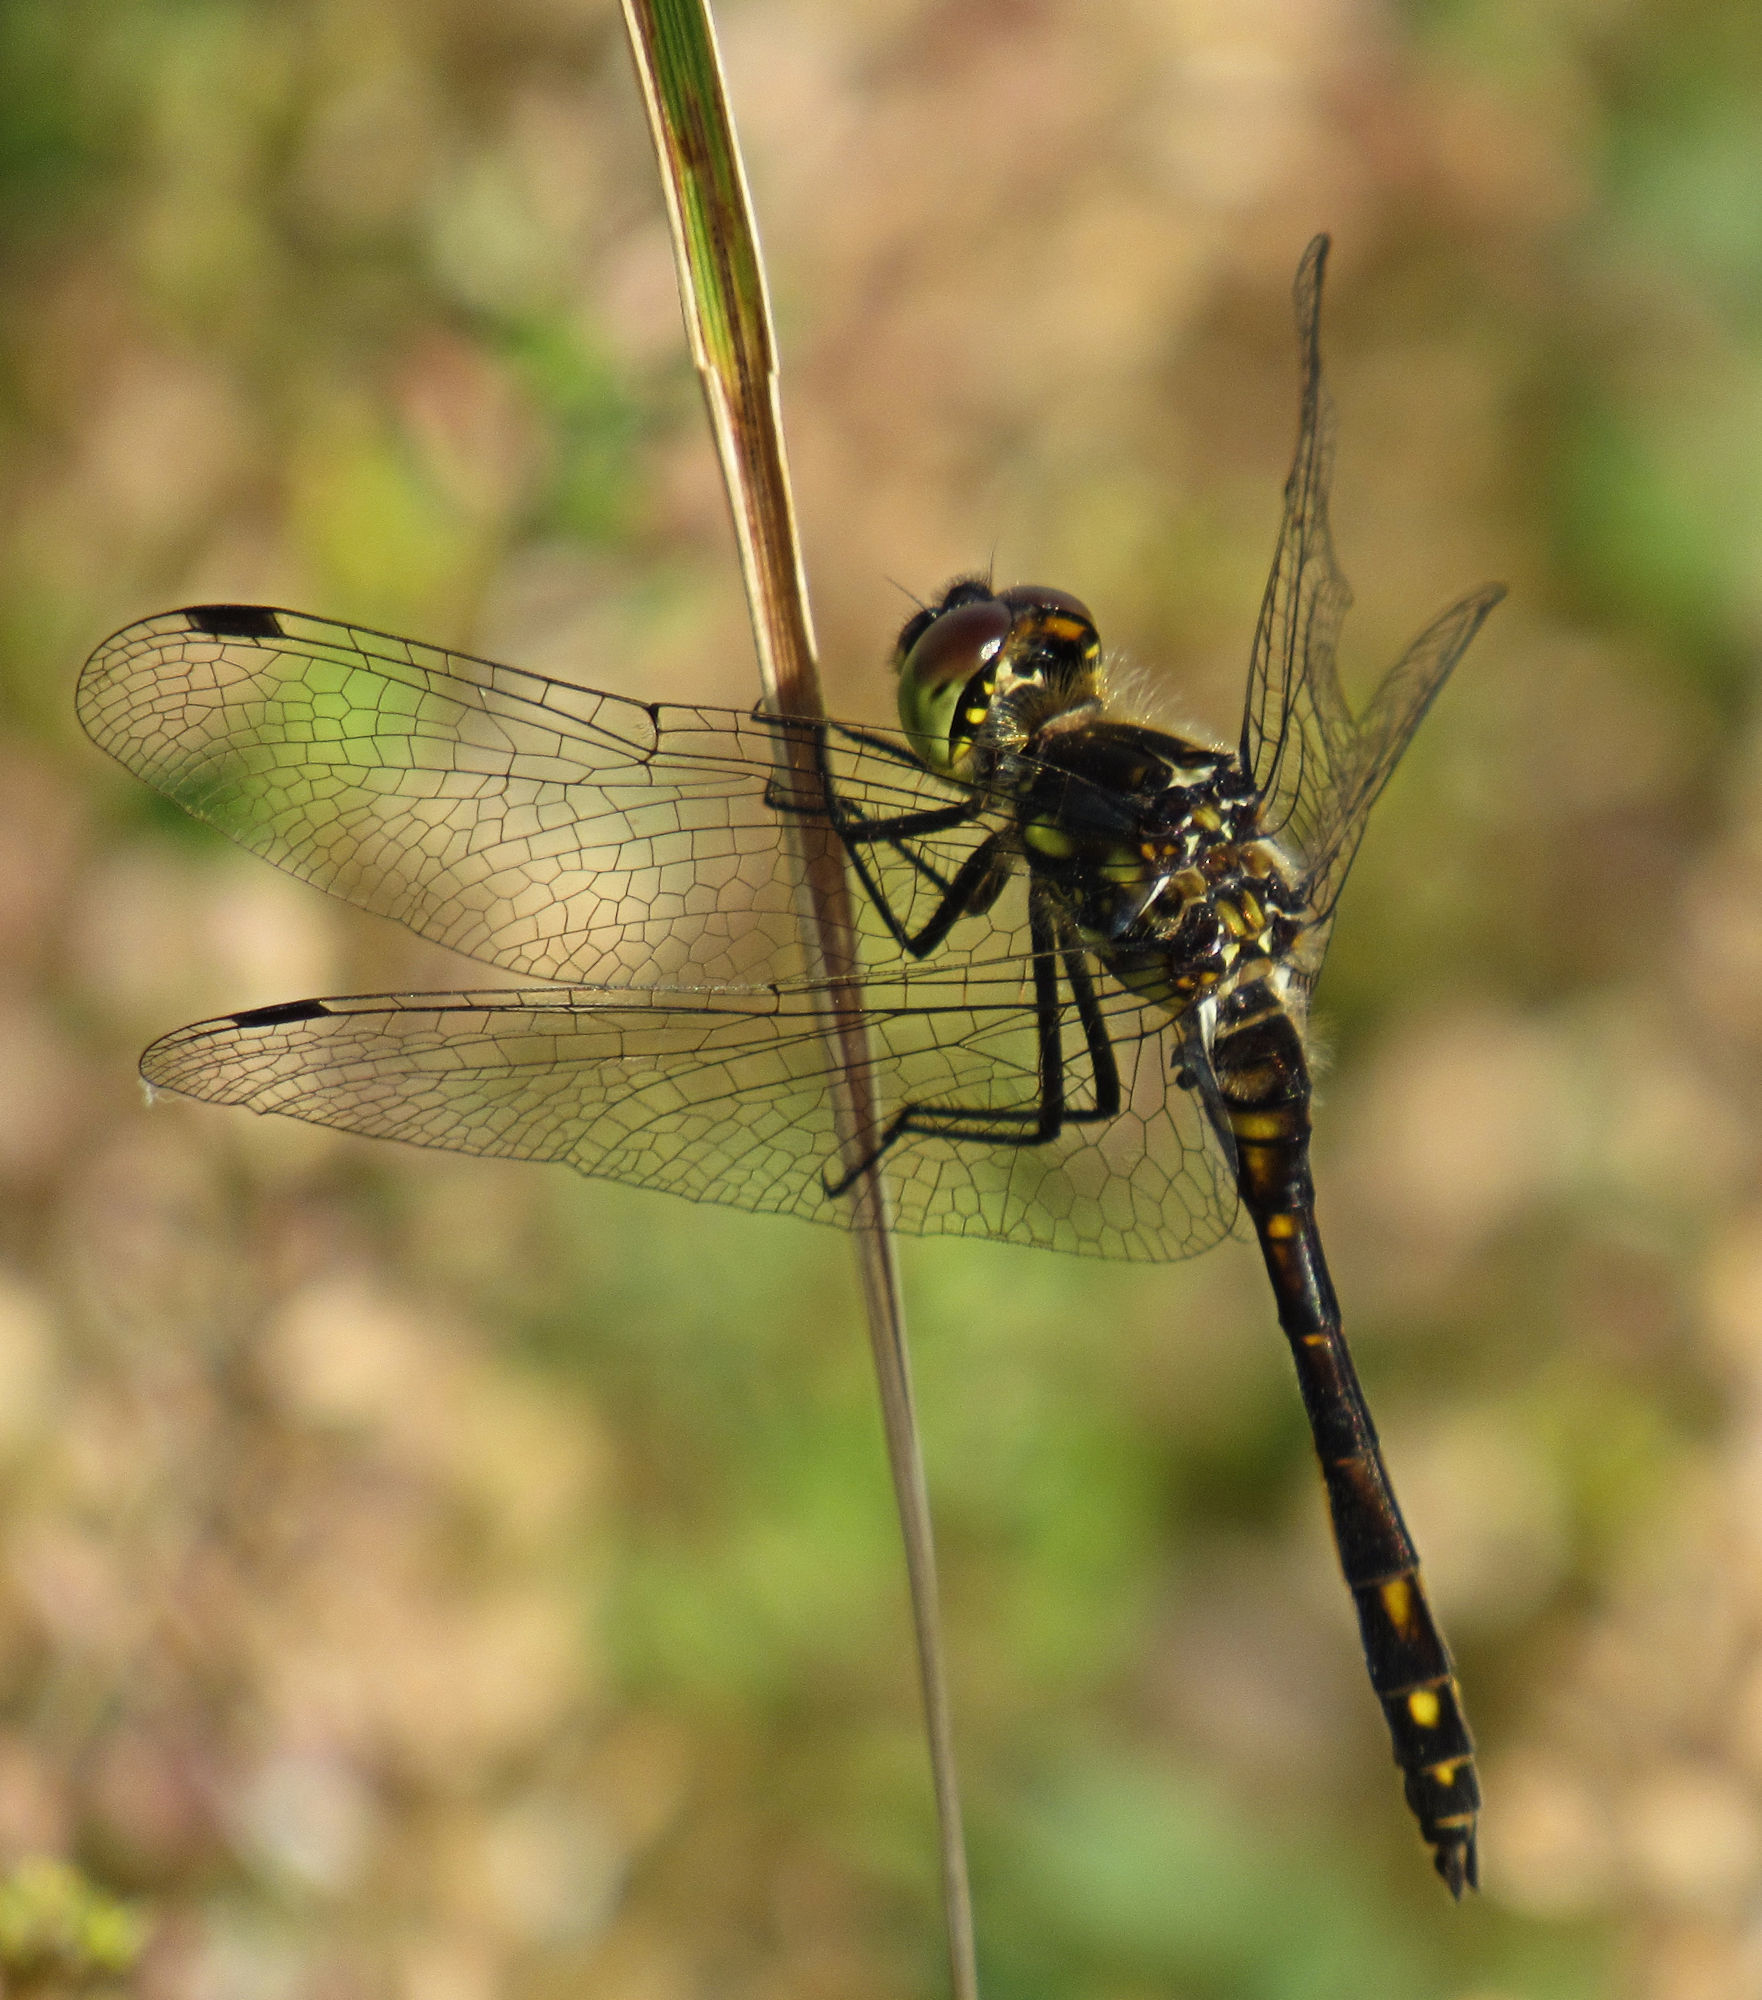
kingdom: Animalia
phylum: Arthropoda
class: Insecta
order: Odonata
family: Libellulidae
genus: Sympetrum
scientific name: Sympetrum danae
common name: Black darter
